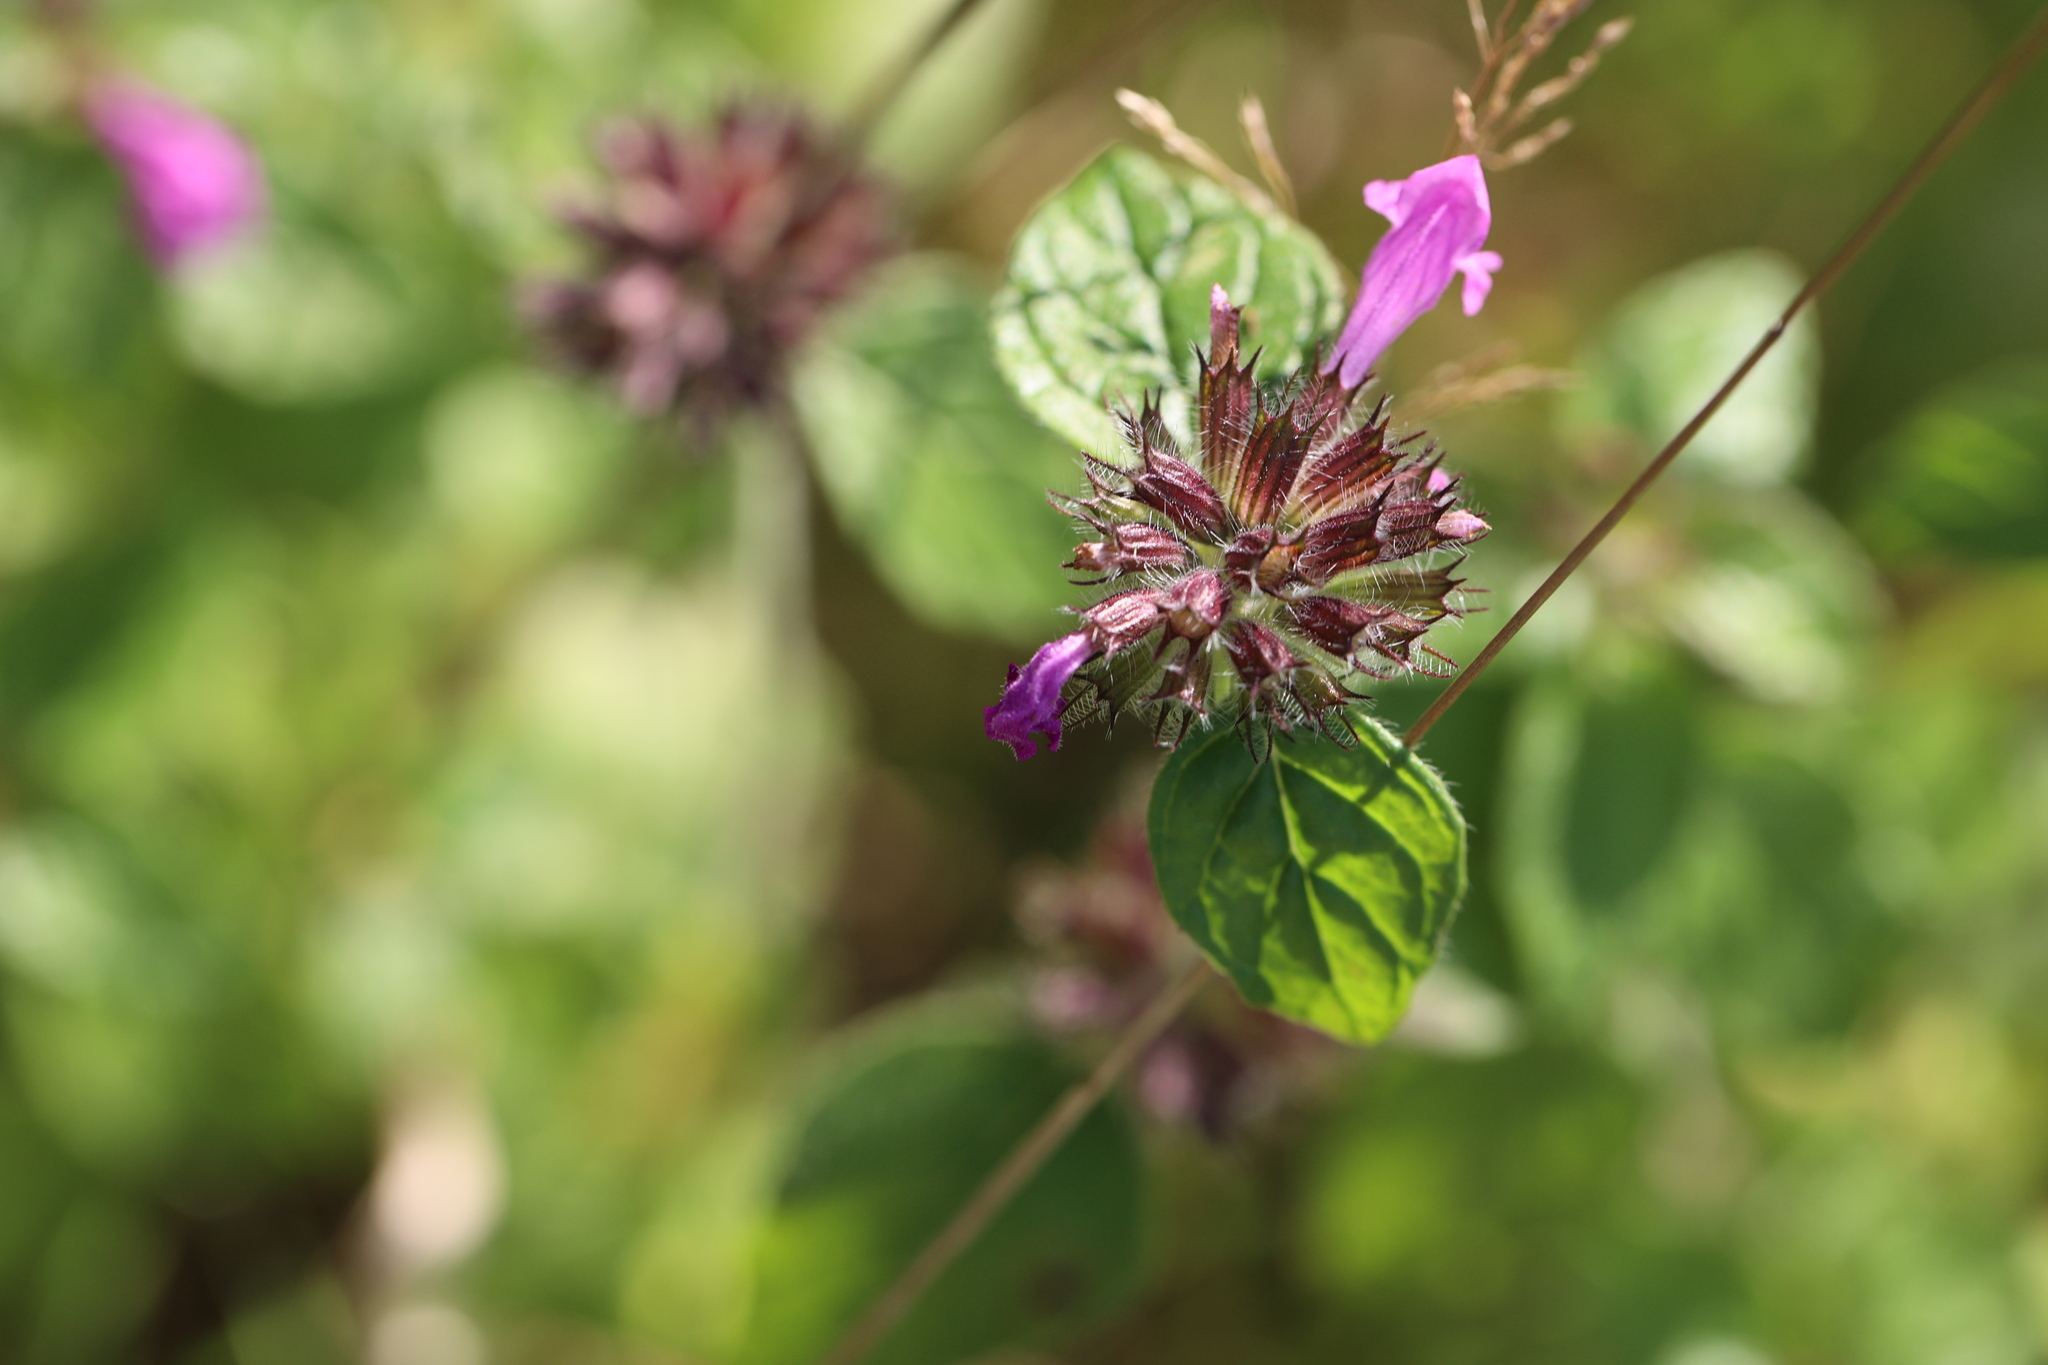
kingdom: Plantae
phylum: Tracheophyta
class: Magnoliopsida
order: Lamiales
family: Lamiaceae
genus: Clinopodium
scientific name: Clinopodium vulgare
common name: Wild basil
